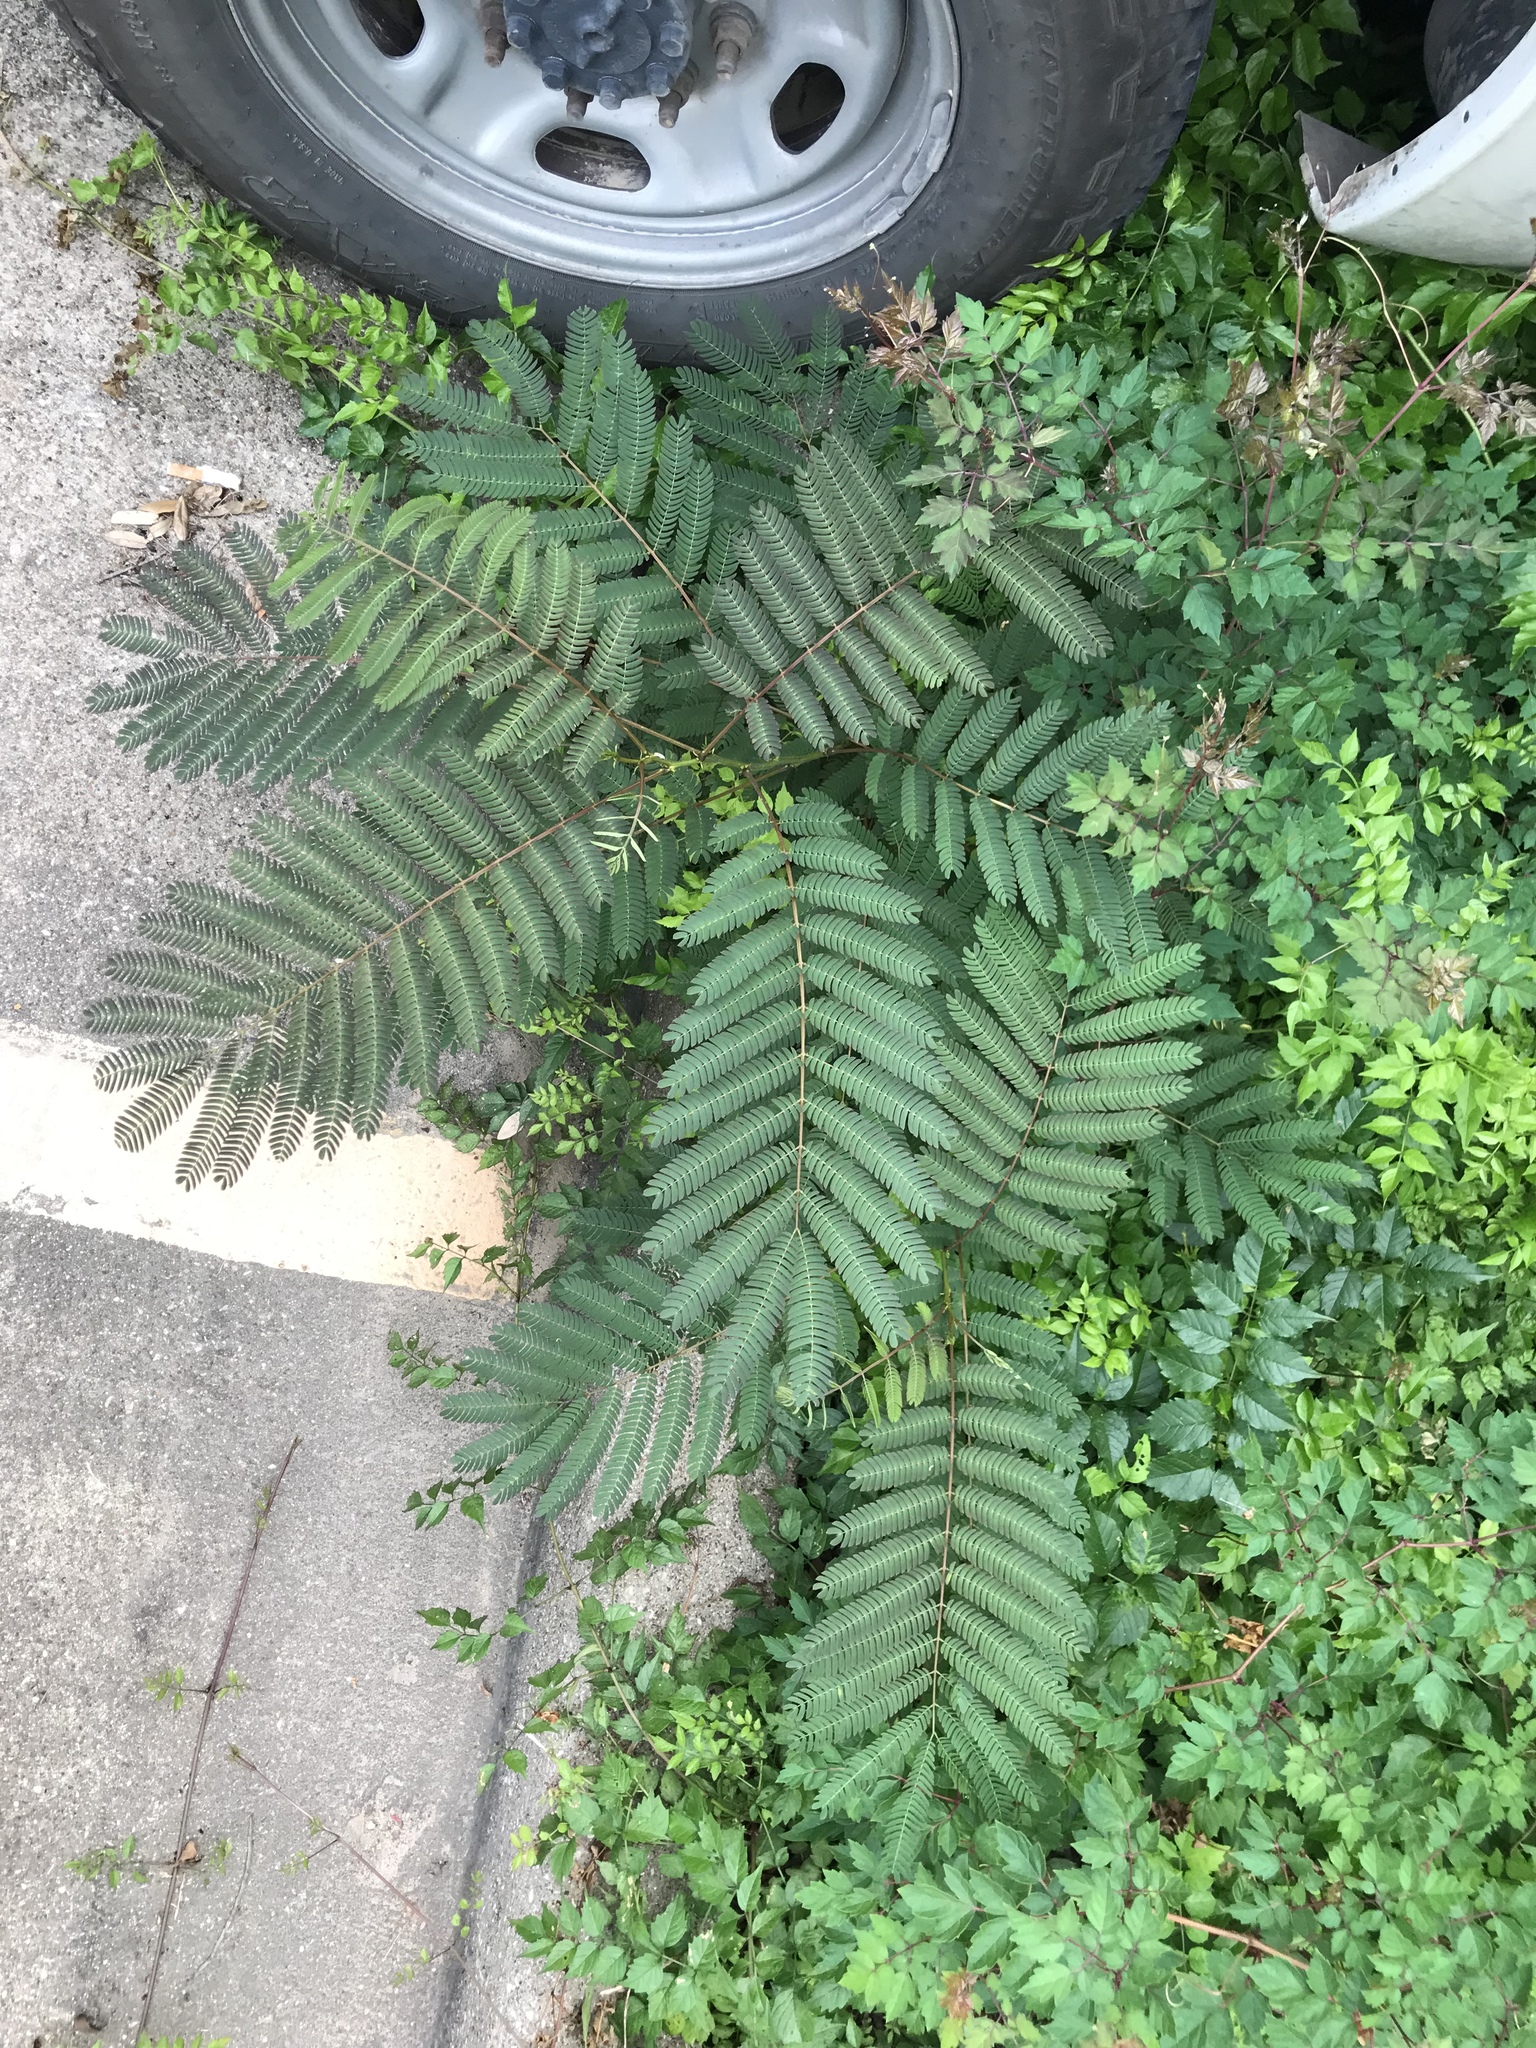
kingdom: Plantae
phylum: Tracheophyta
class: Magnoliopsida
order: Fabales
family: Fabaceae
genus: Albizia
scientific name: Albizia julibrissin
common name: Silktree
